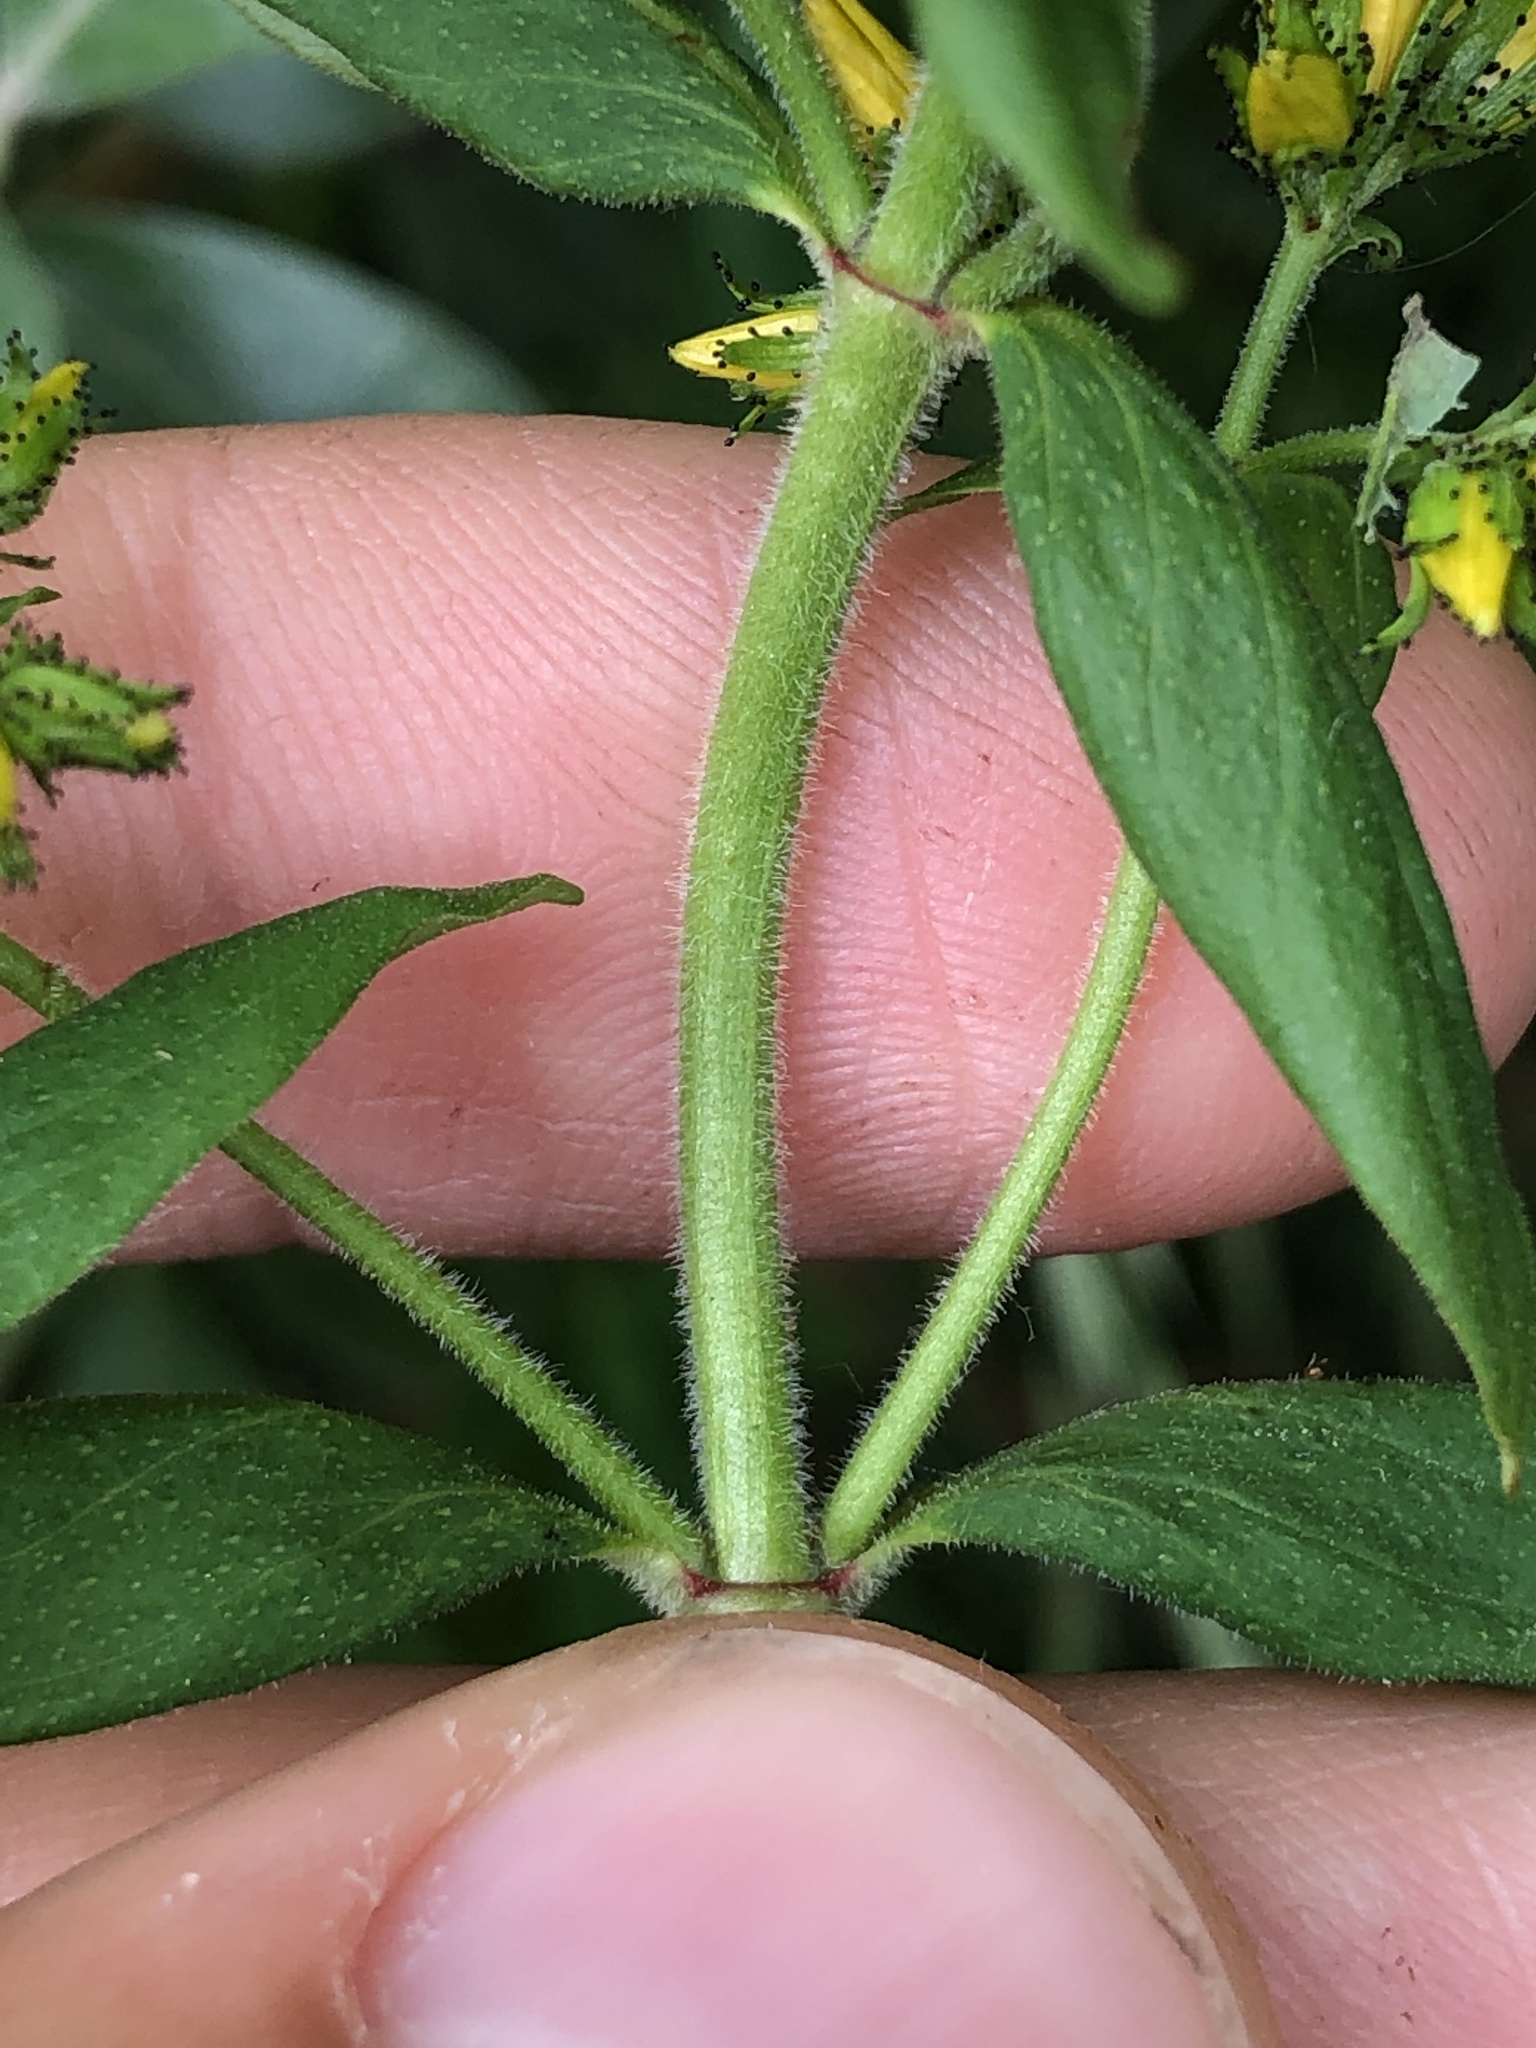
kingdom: Plantae
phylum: Tracheophyta
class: Magnoliopsida
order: Malpighiales
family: Hypericaceae
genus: Hypericum
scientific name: Hypericum hirsutum
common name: Hairy st. john's-wort
